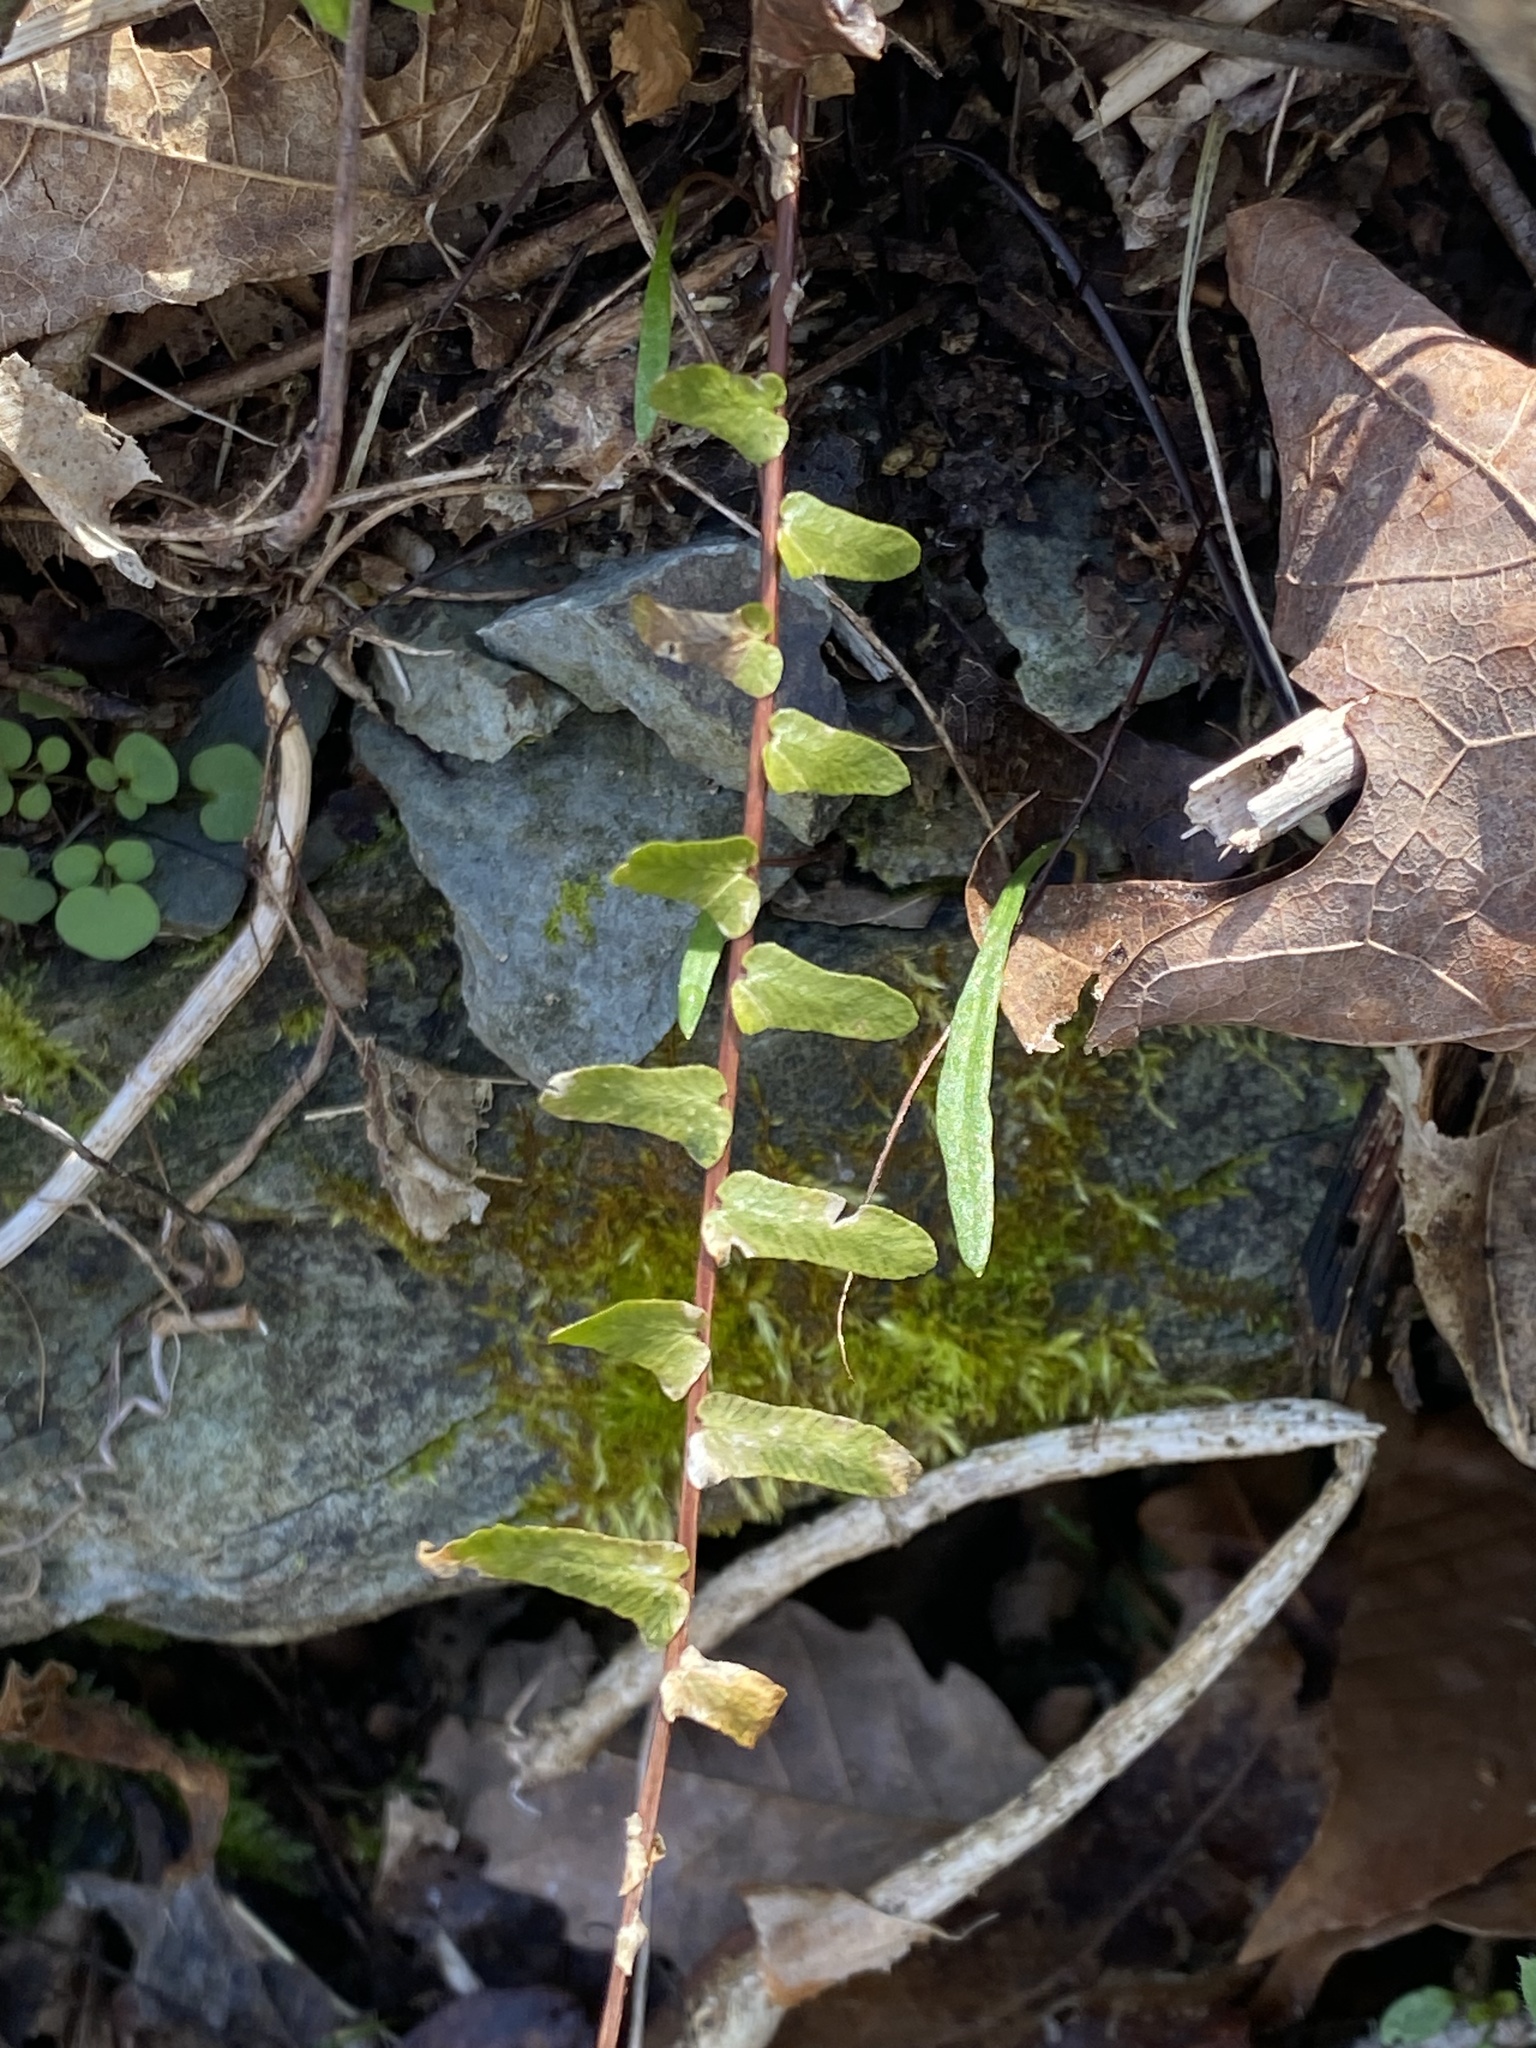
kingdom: Plantae
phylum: Tracheophyta
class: Polypodiopsida
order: Polypodiales
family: Aspleniaceae
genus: Asplenium
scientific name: Asplenium platyneuron
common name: Ebony spleenwort
